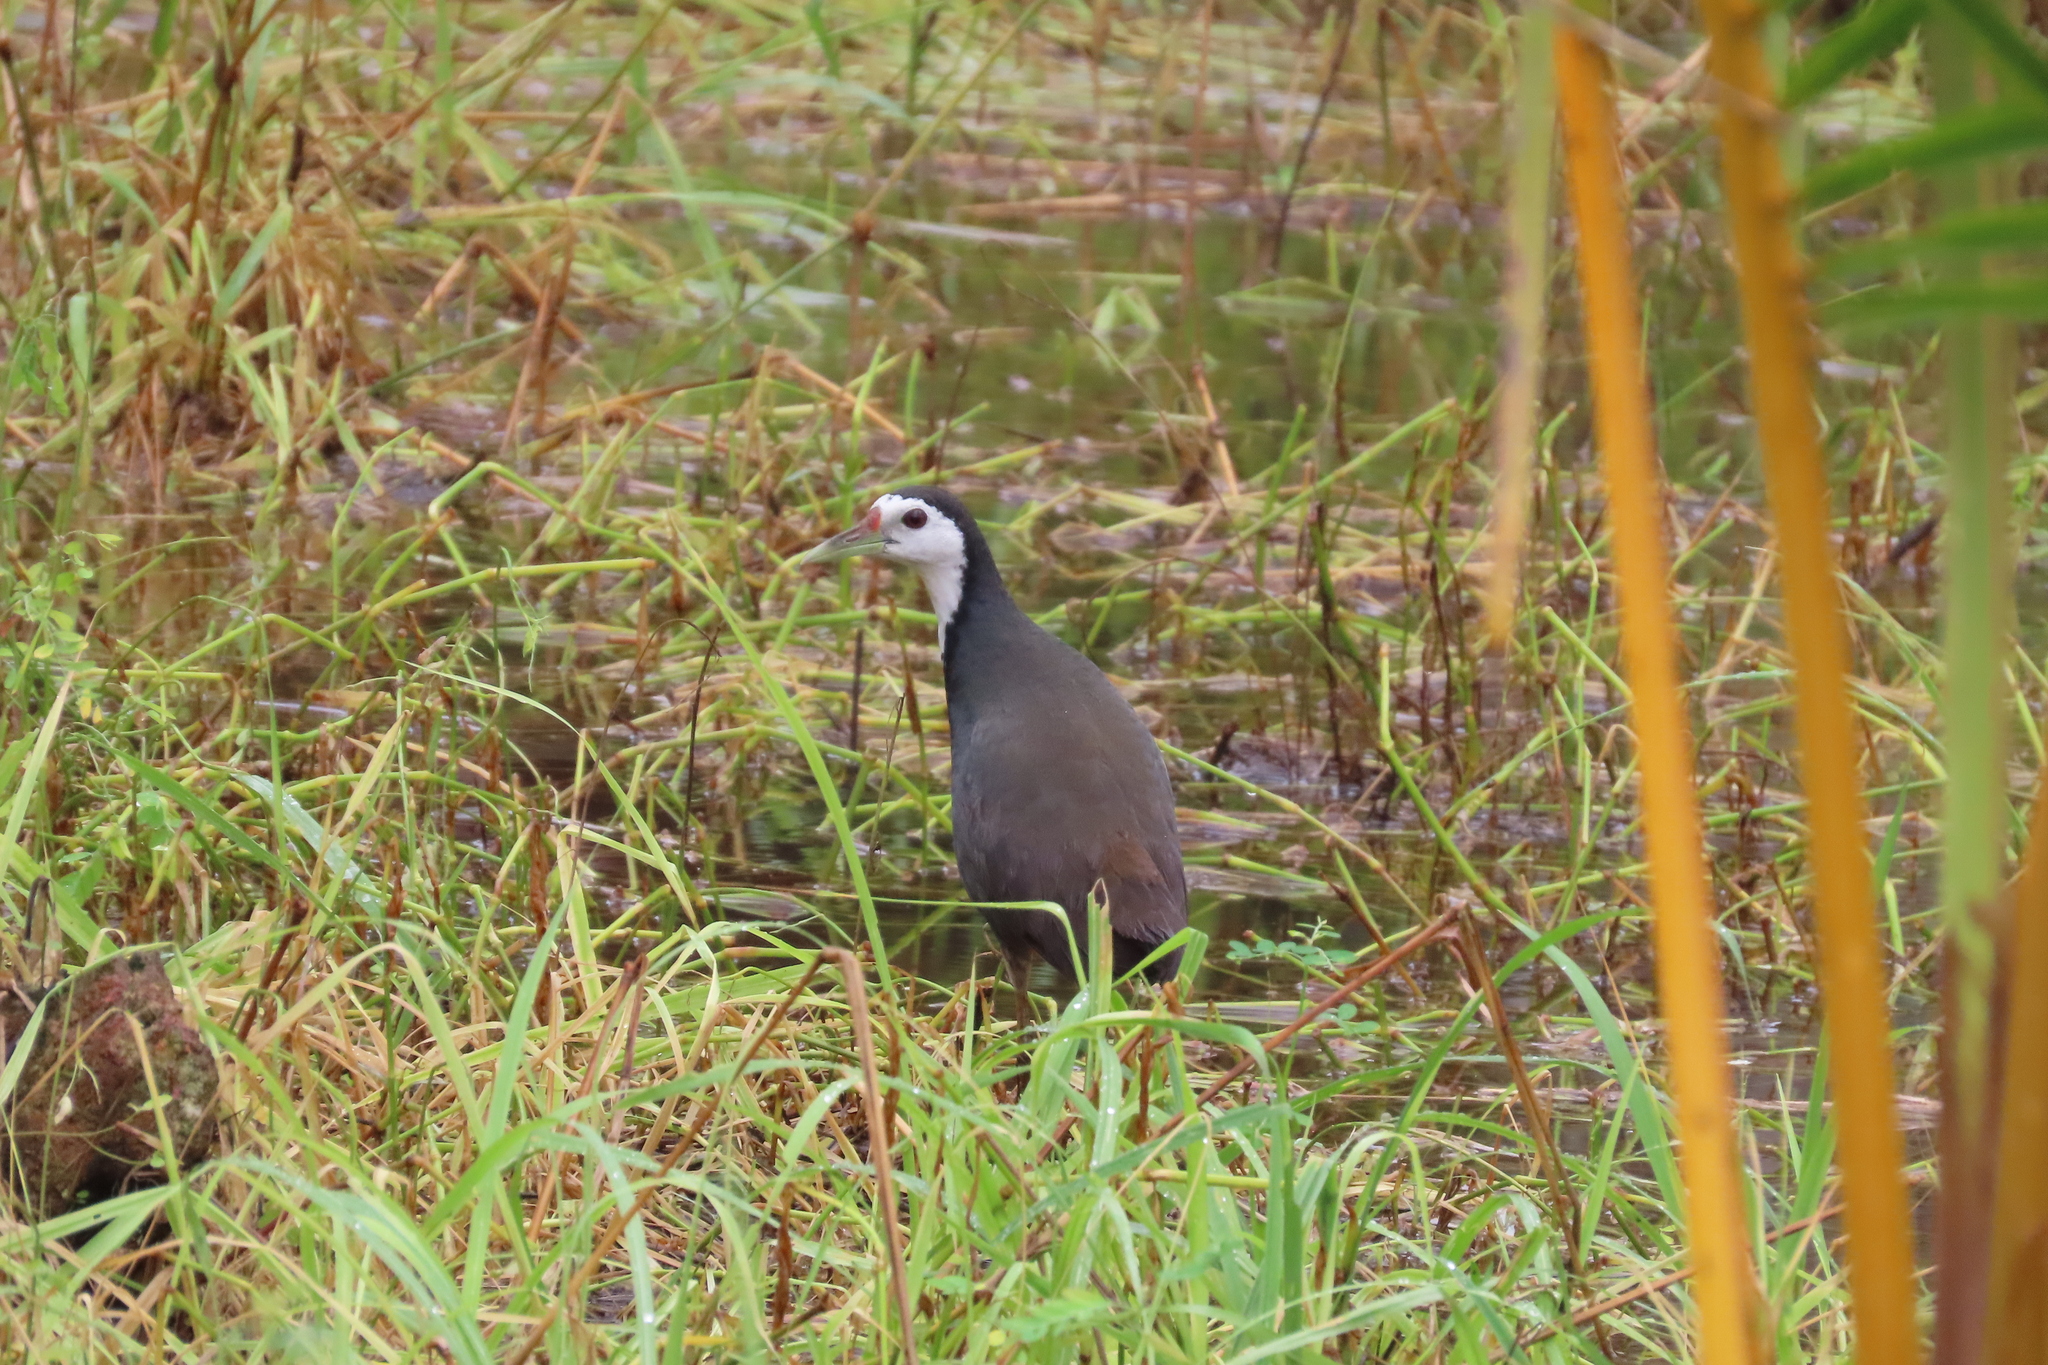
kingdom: Animalia
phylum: Chordata
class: Aves
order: Gruiformes
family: Rallidae
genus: Amaurornis
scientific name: Amaurornis phoenicurus
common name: White-breasted waterhen
